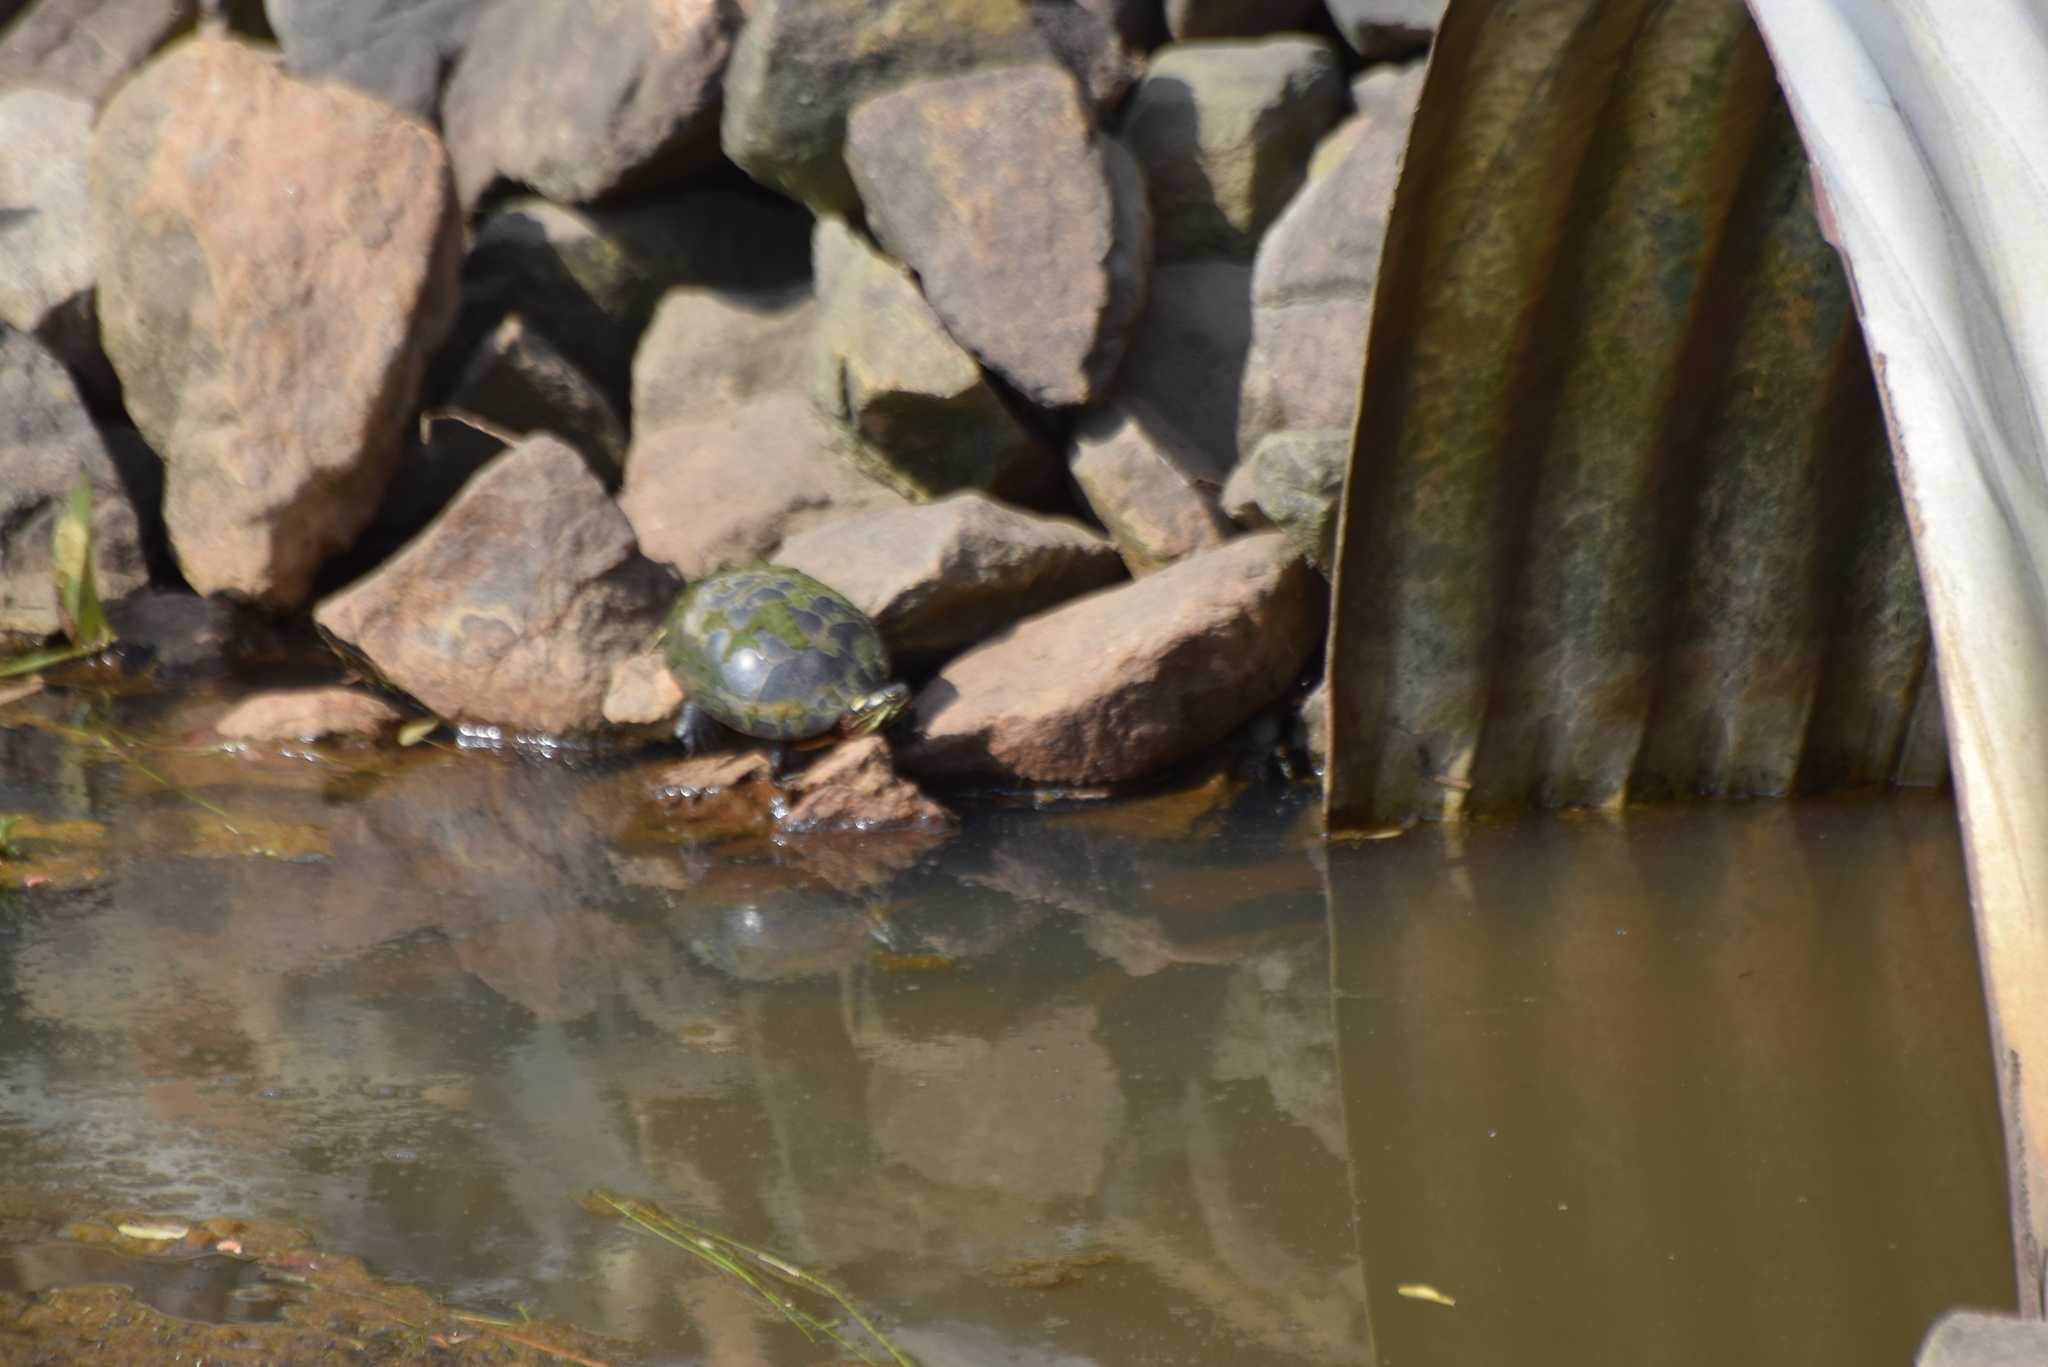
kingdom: Animalia
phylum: Chordata
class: Testudines
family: Emydidae
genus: Chrysemys
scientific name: Chrysemys picta
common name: Painted turtle
